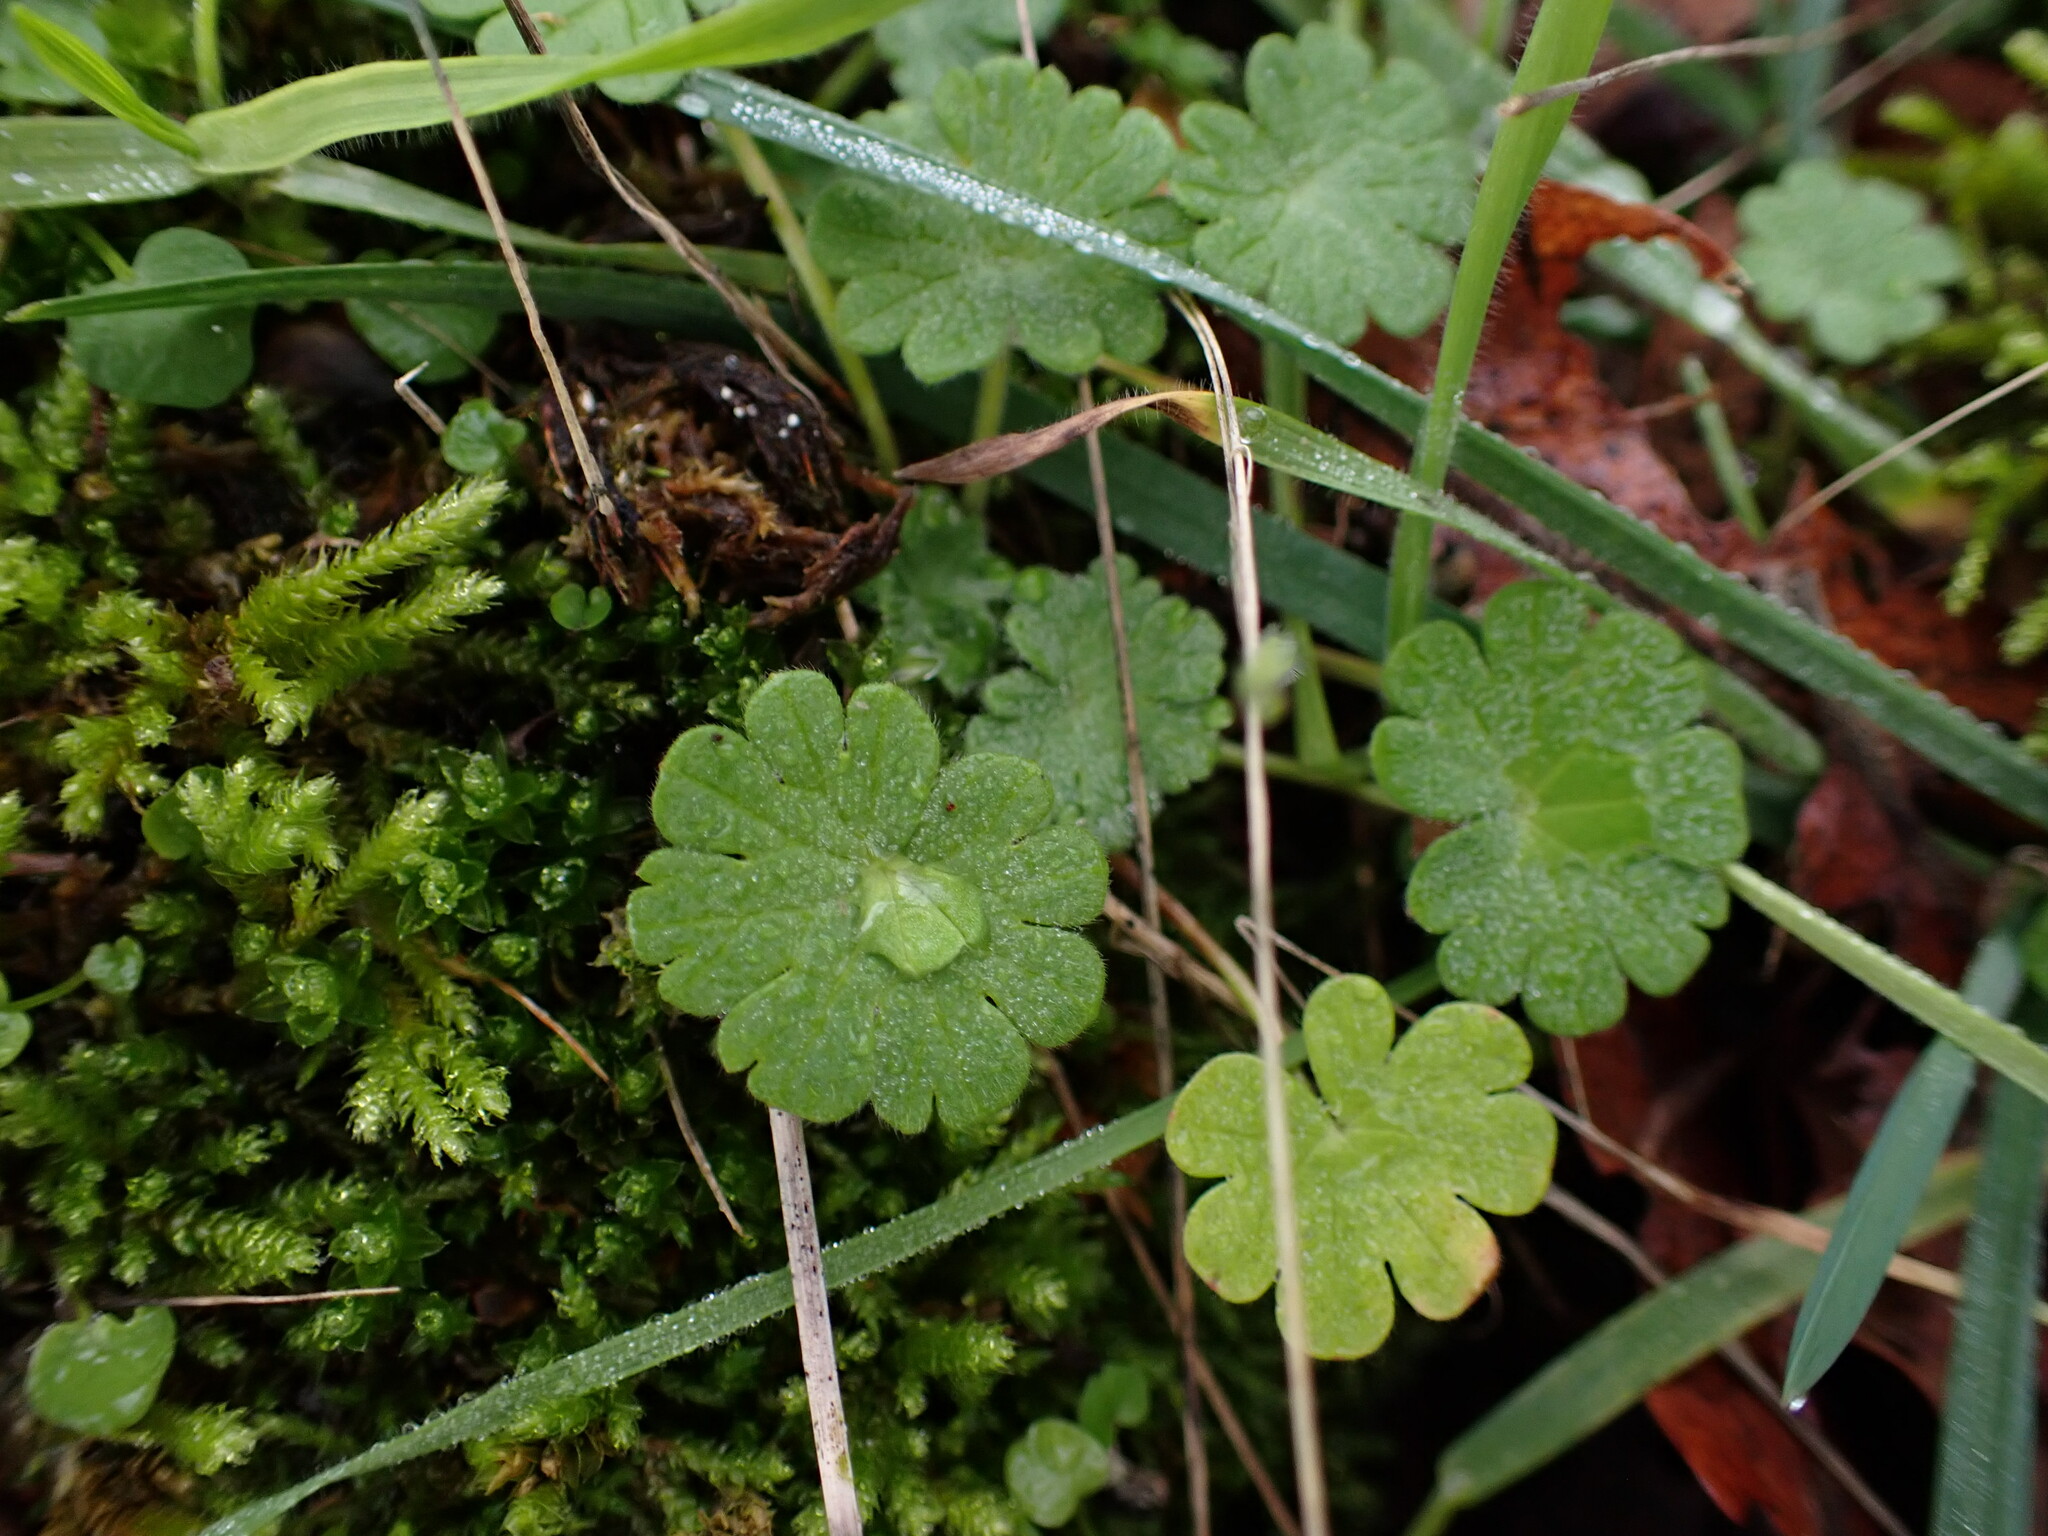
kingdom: Plantae
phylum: Tracheophyta
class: Magnoliopsida
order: Geraniales
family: Geraniaceae
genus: Geranium
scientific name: Geranium molle
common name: Dove's-foot crane's-bill
